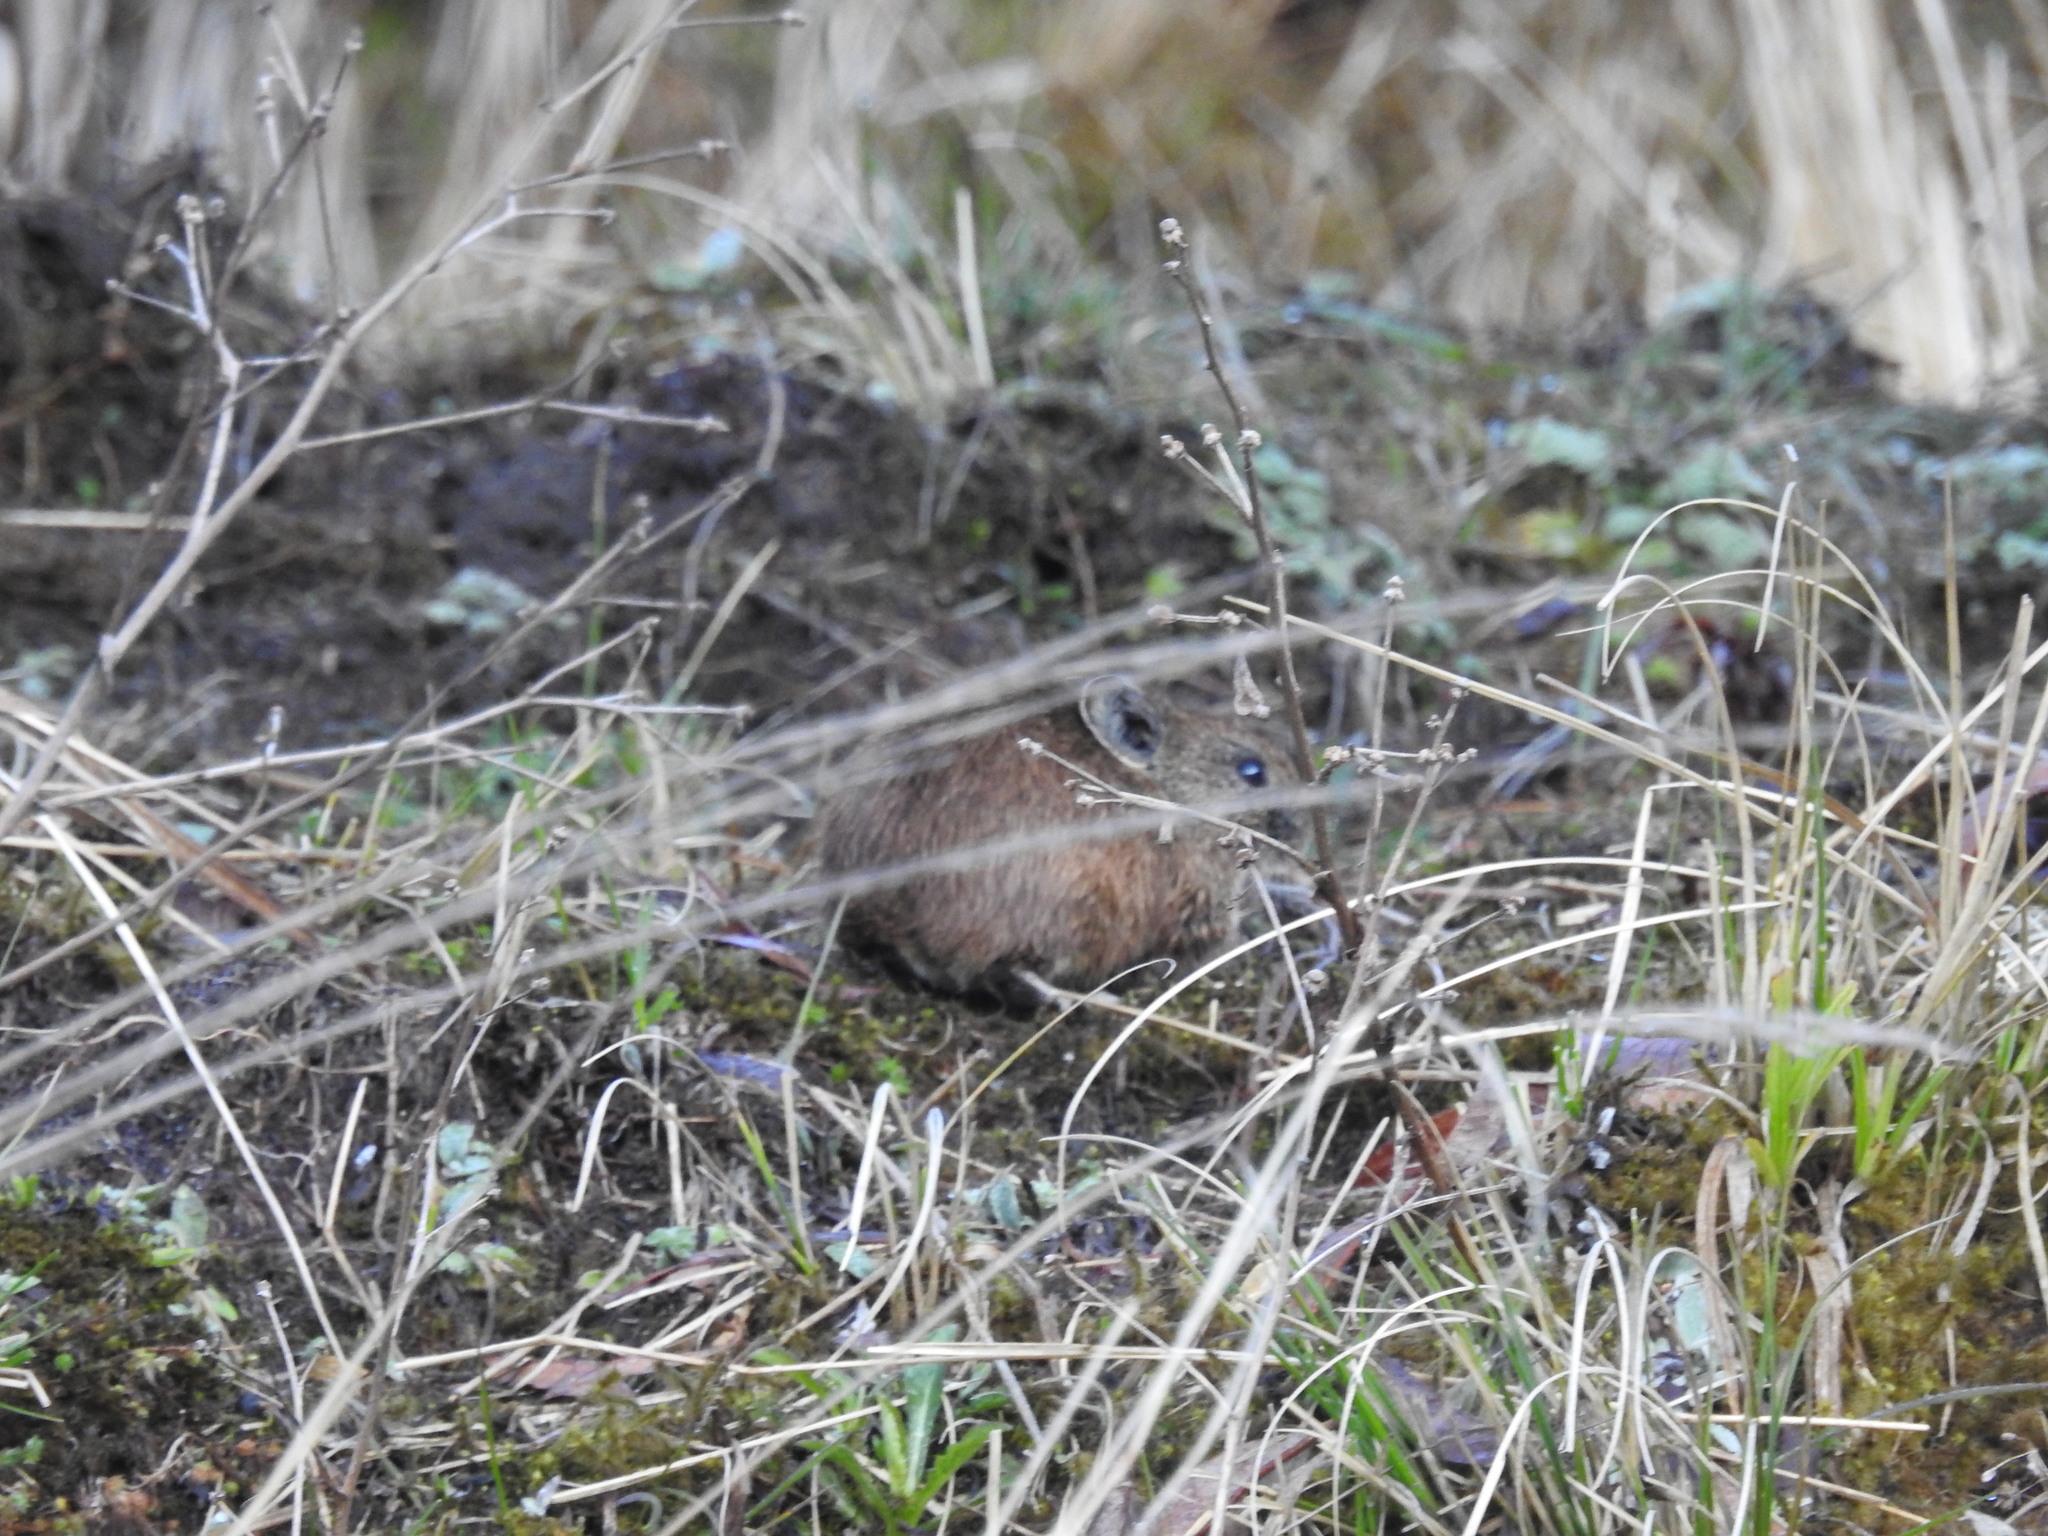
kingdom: Animalia
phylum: Chordata
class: Mammalia
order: Lagomorpha
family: Ochotonidae
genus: Ochotona
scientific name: Ochotona macrotis
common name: Large-eared pika
